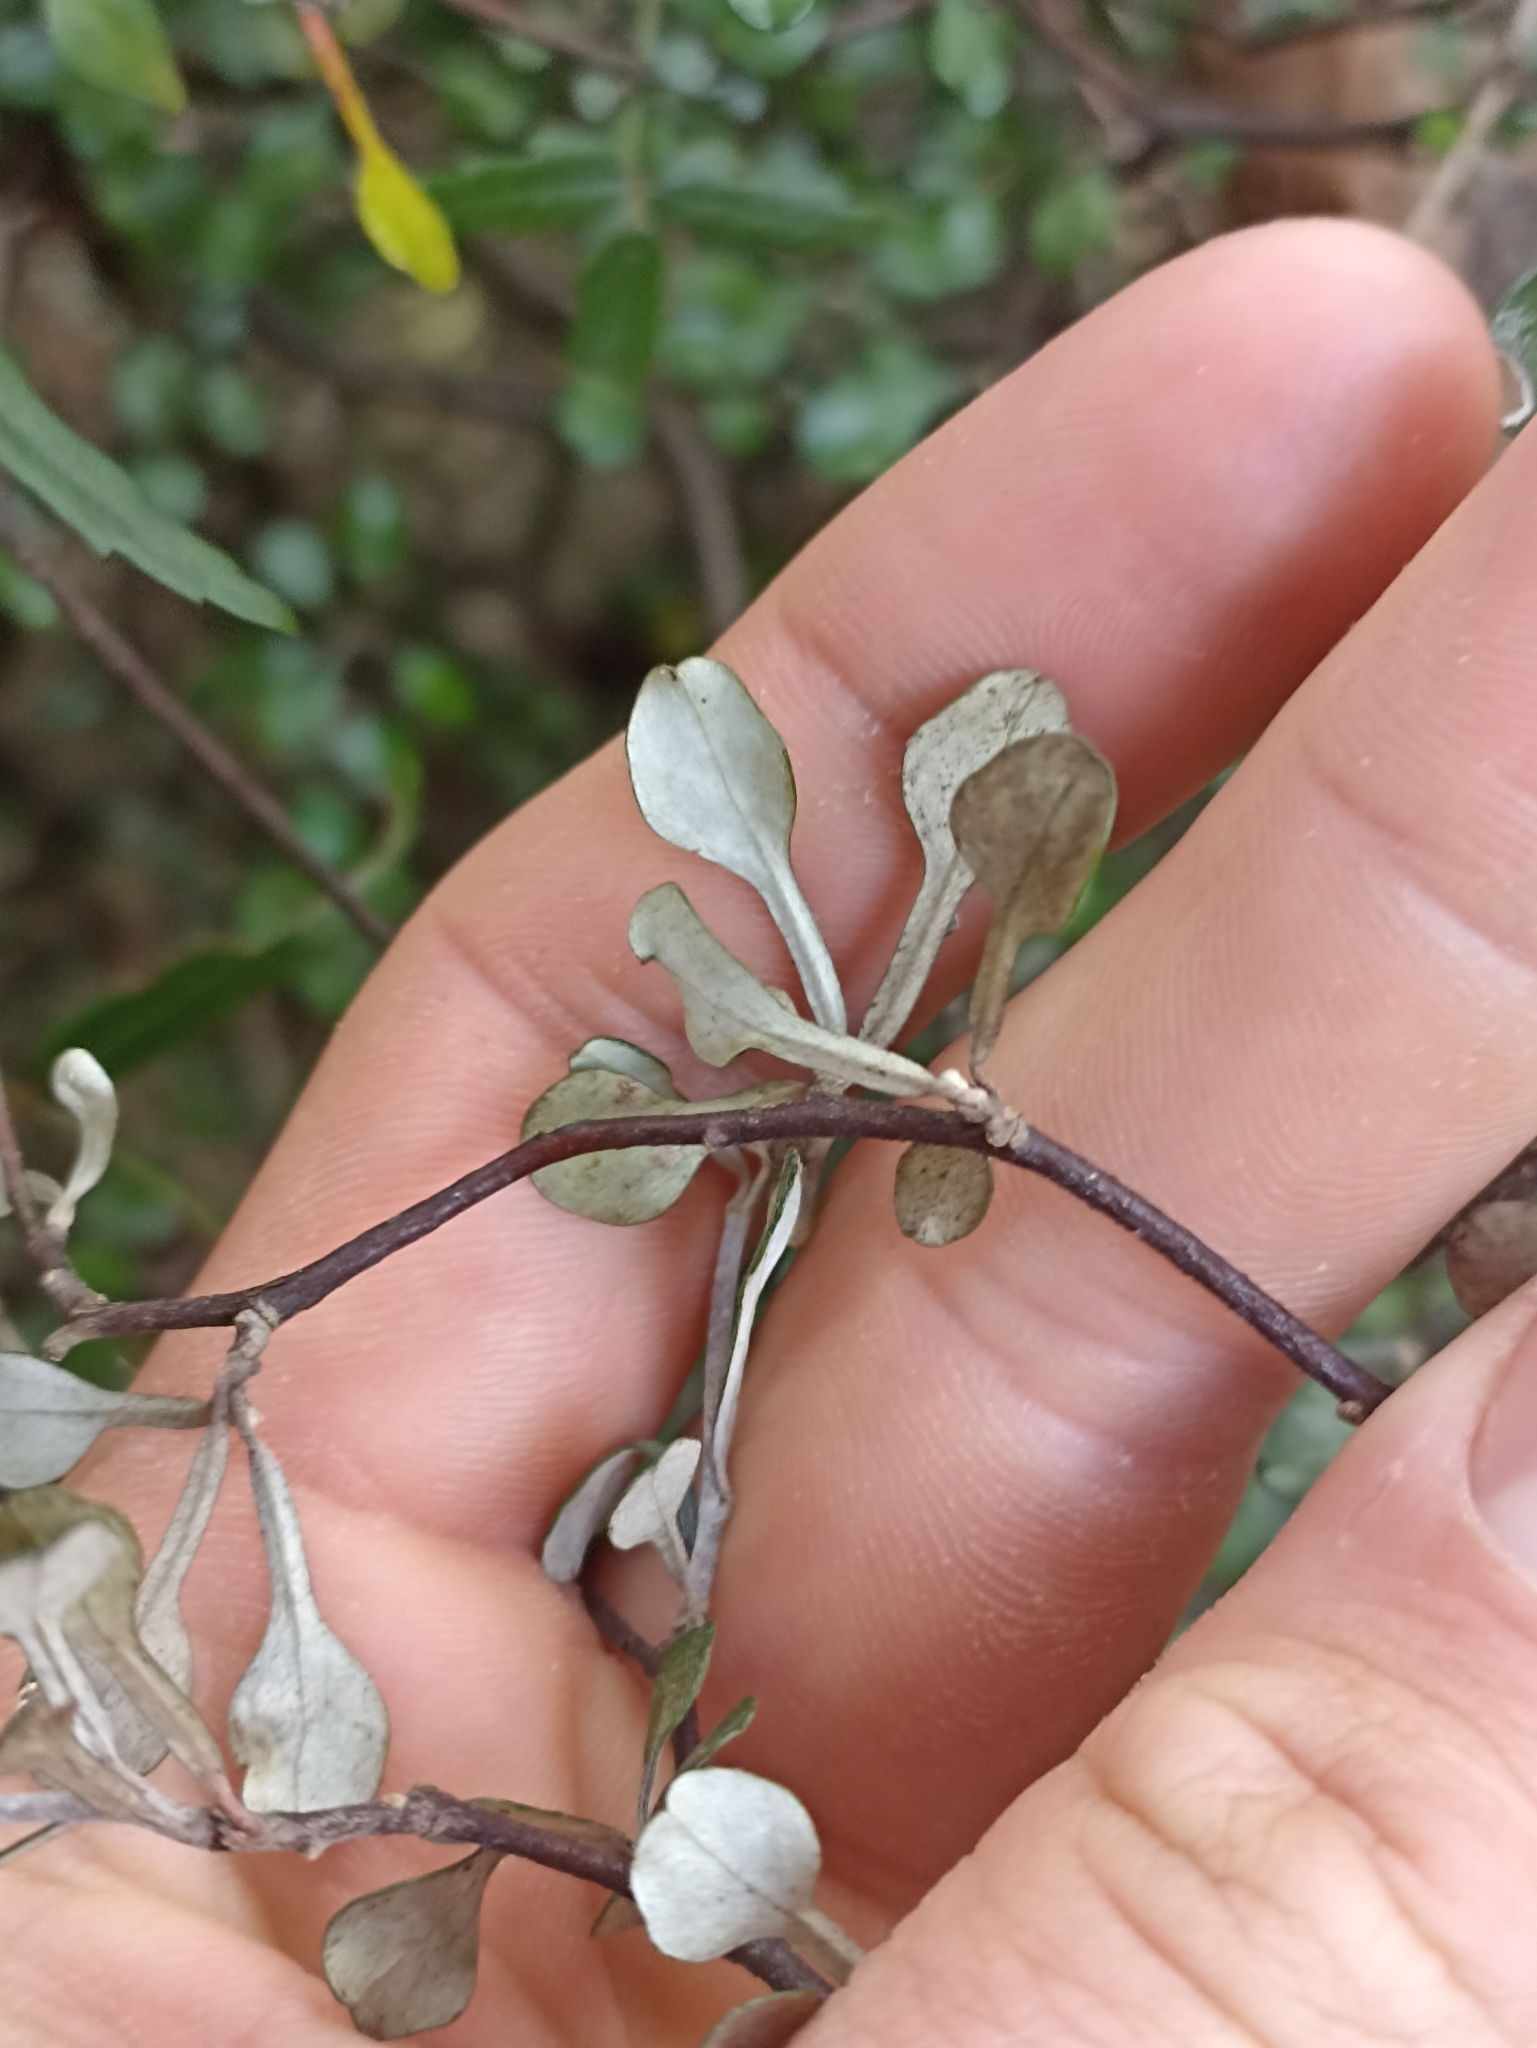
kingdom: Plantae
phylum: Tracheophyta
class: Magnoliopsida
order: Asterales
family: Argophyllaceae
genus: Corokia
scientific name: Corokia cotoneaster
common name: Wire nettingbush
